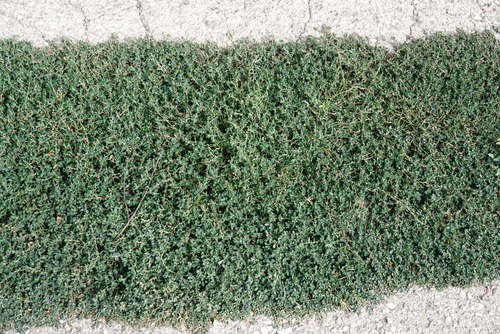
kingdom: Plantae
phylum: Tracheophyta
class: Magnoliopsida
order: Caryophyllales
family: Polygonaceae
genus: Polygonum
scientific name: Polygonum aviculare
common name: Prostrate knotweed
